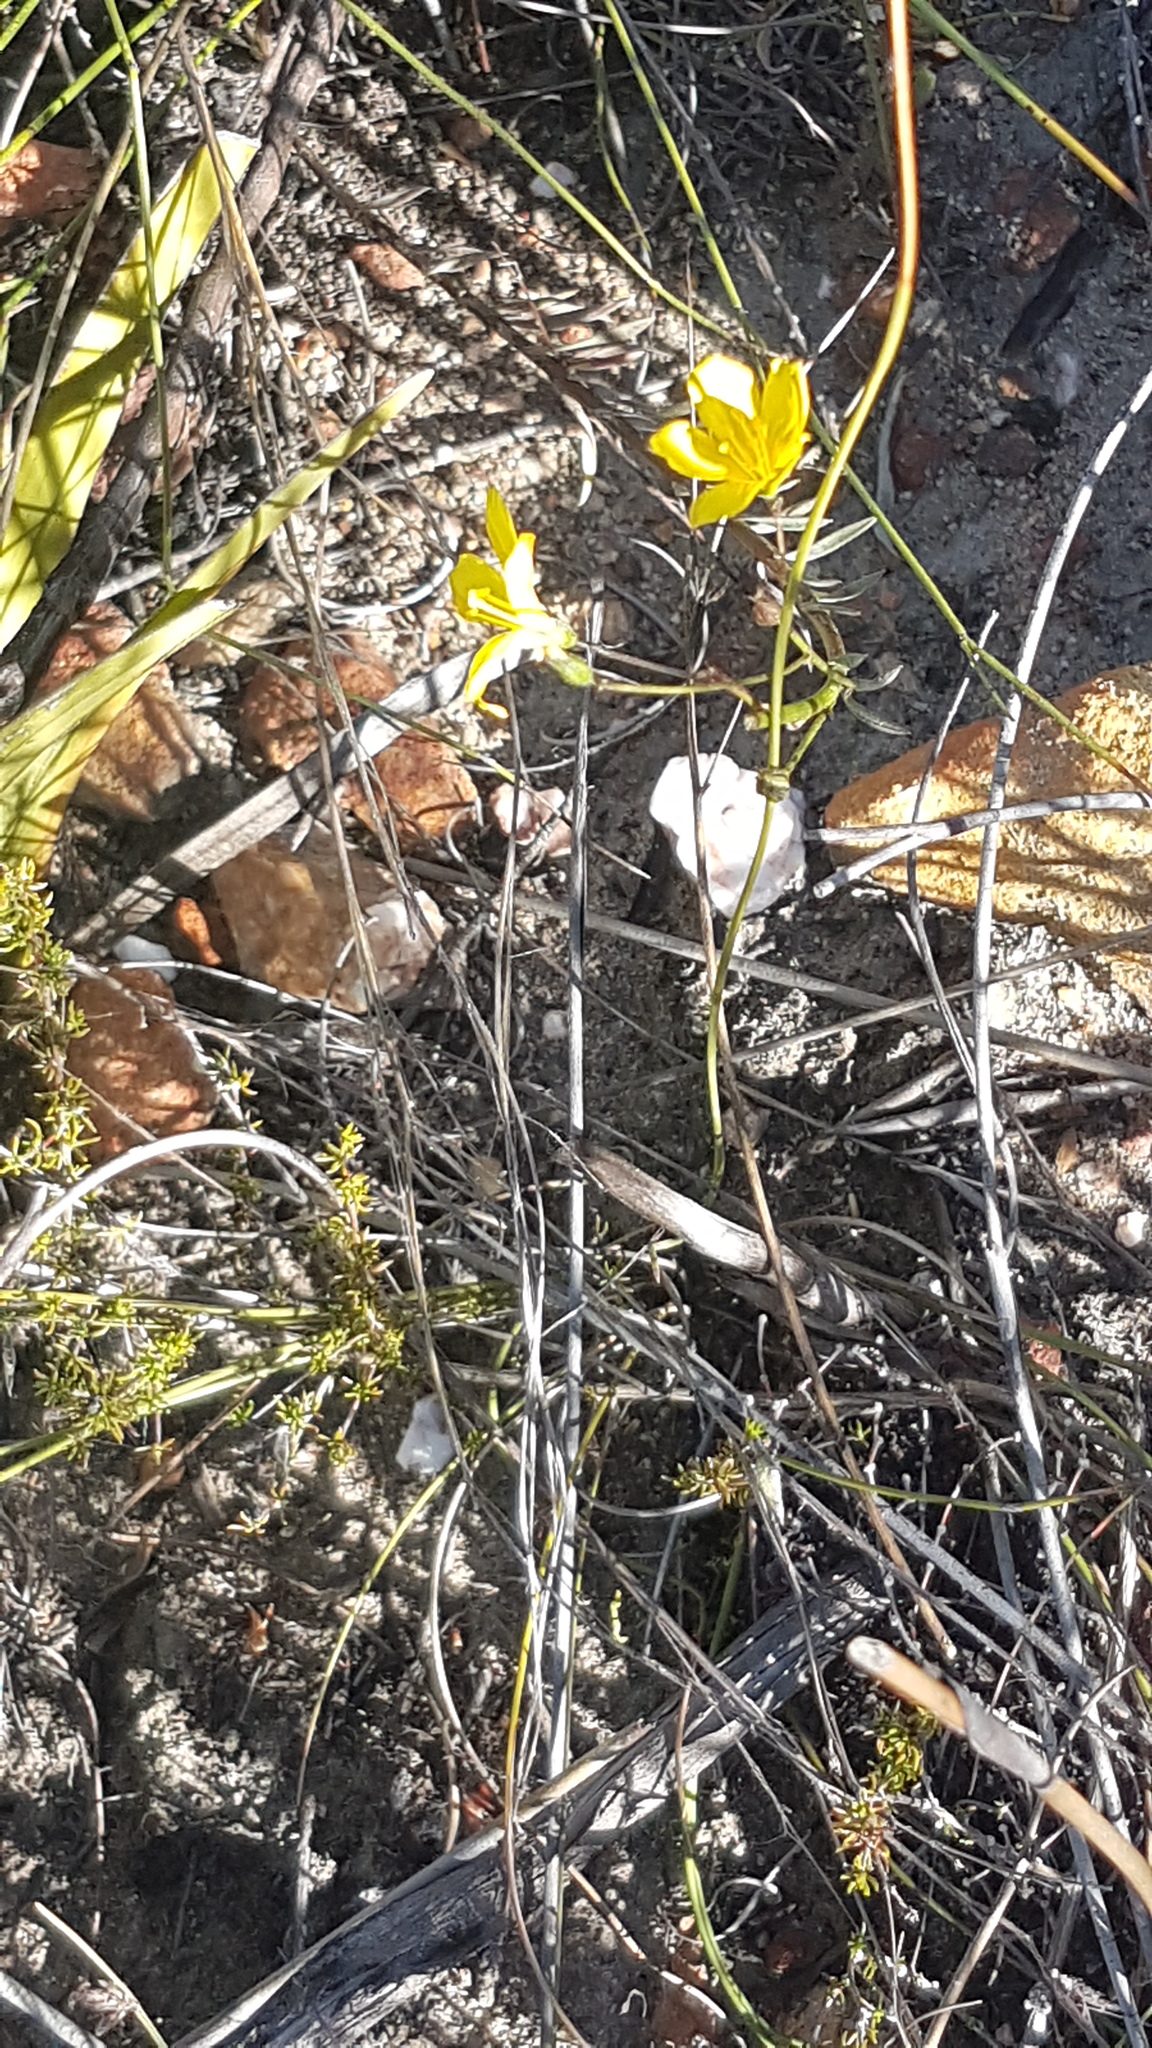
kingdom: Plantae
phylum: Tracheophyta
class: Magnoliopsida
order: Malpighiales
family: Linaceae
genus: Linum
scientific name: Linum africanum
